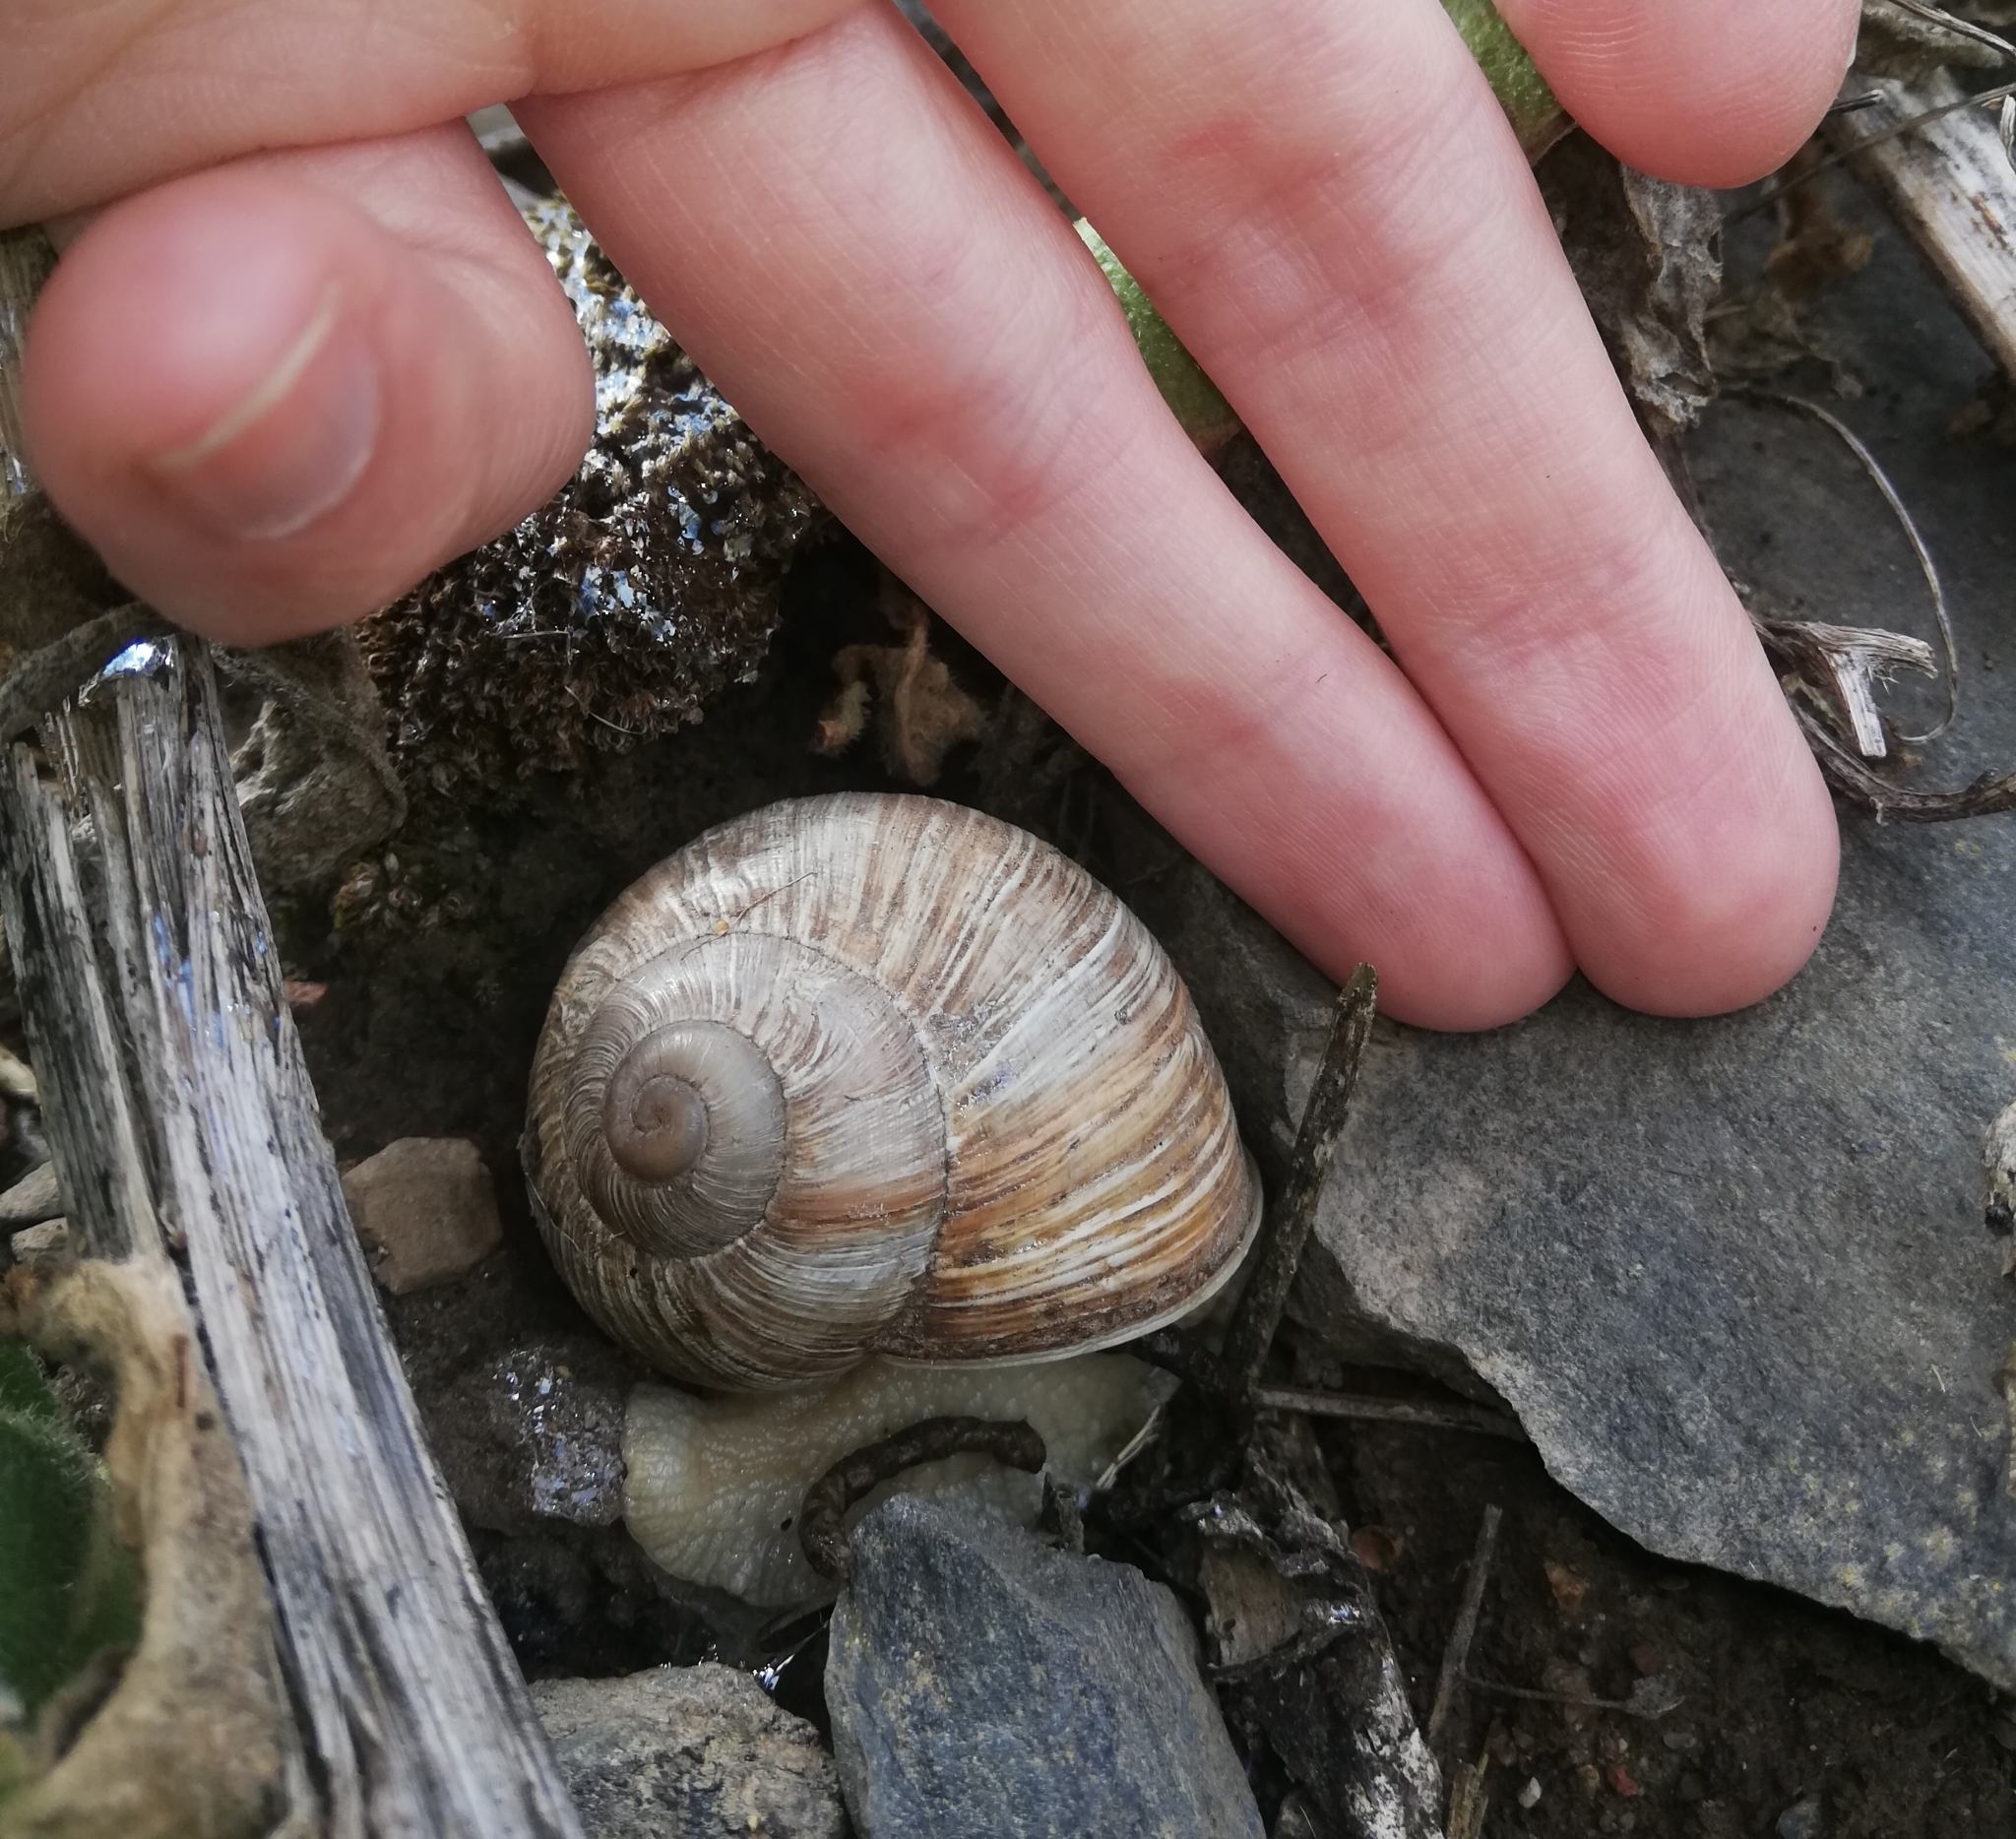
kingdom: Animalia
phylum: Mollusca
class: Gastropoda
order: Stylommatophora
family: Helicidae
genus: Helix
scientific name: Helix pomatia
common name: Roman snail
